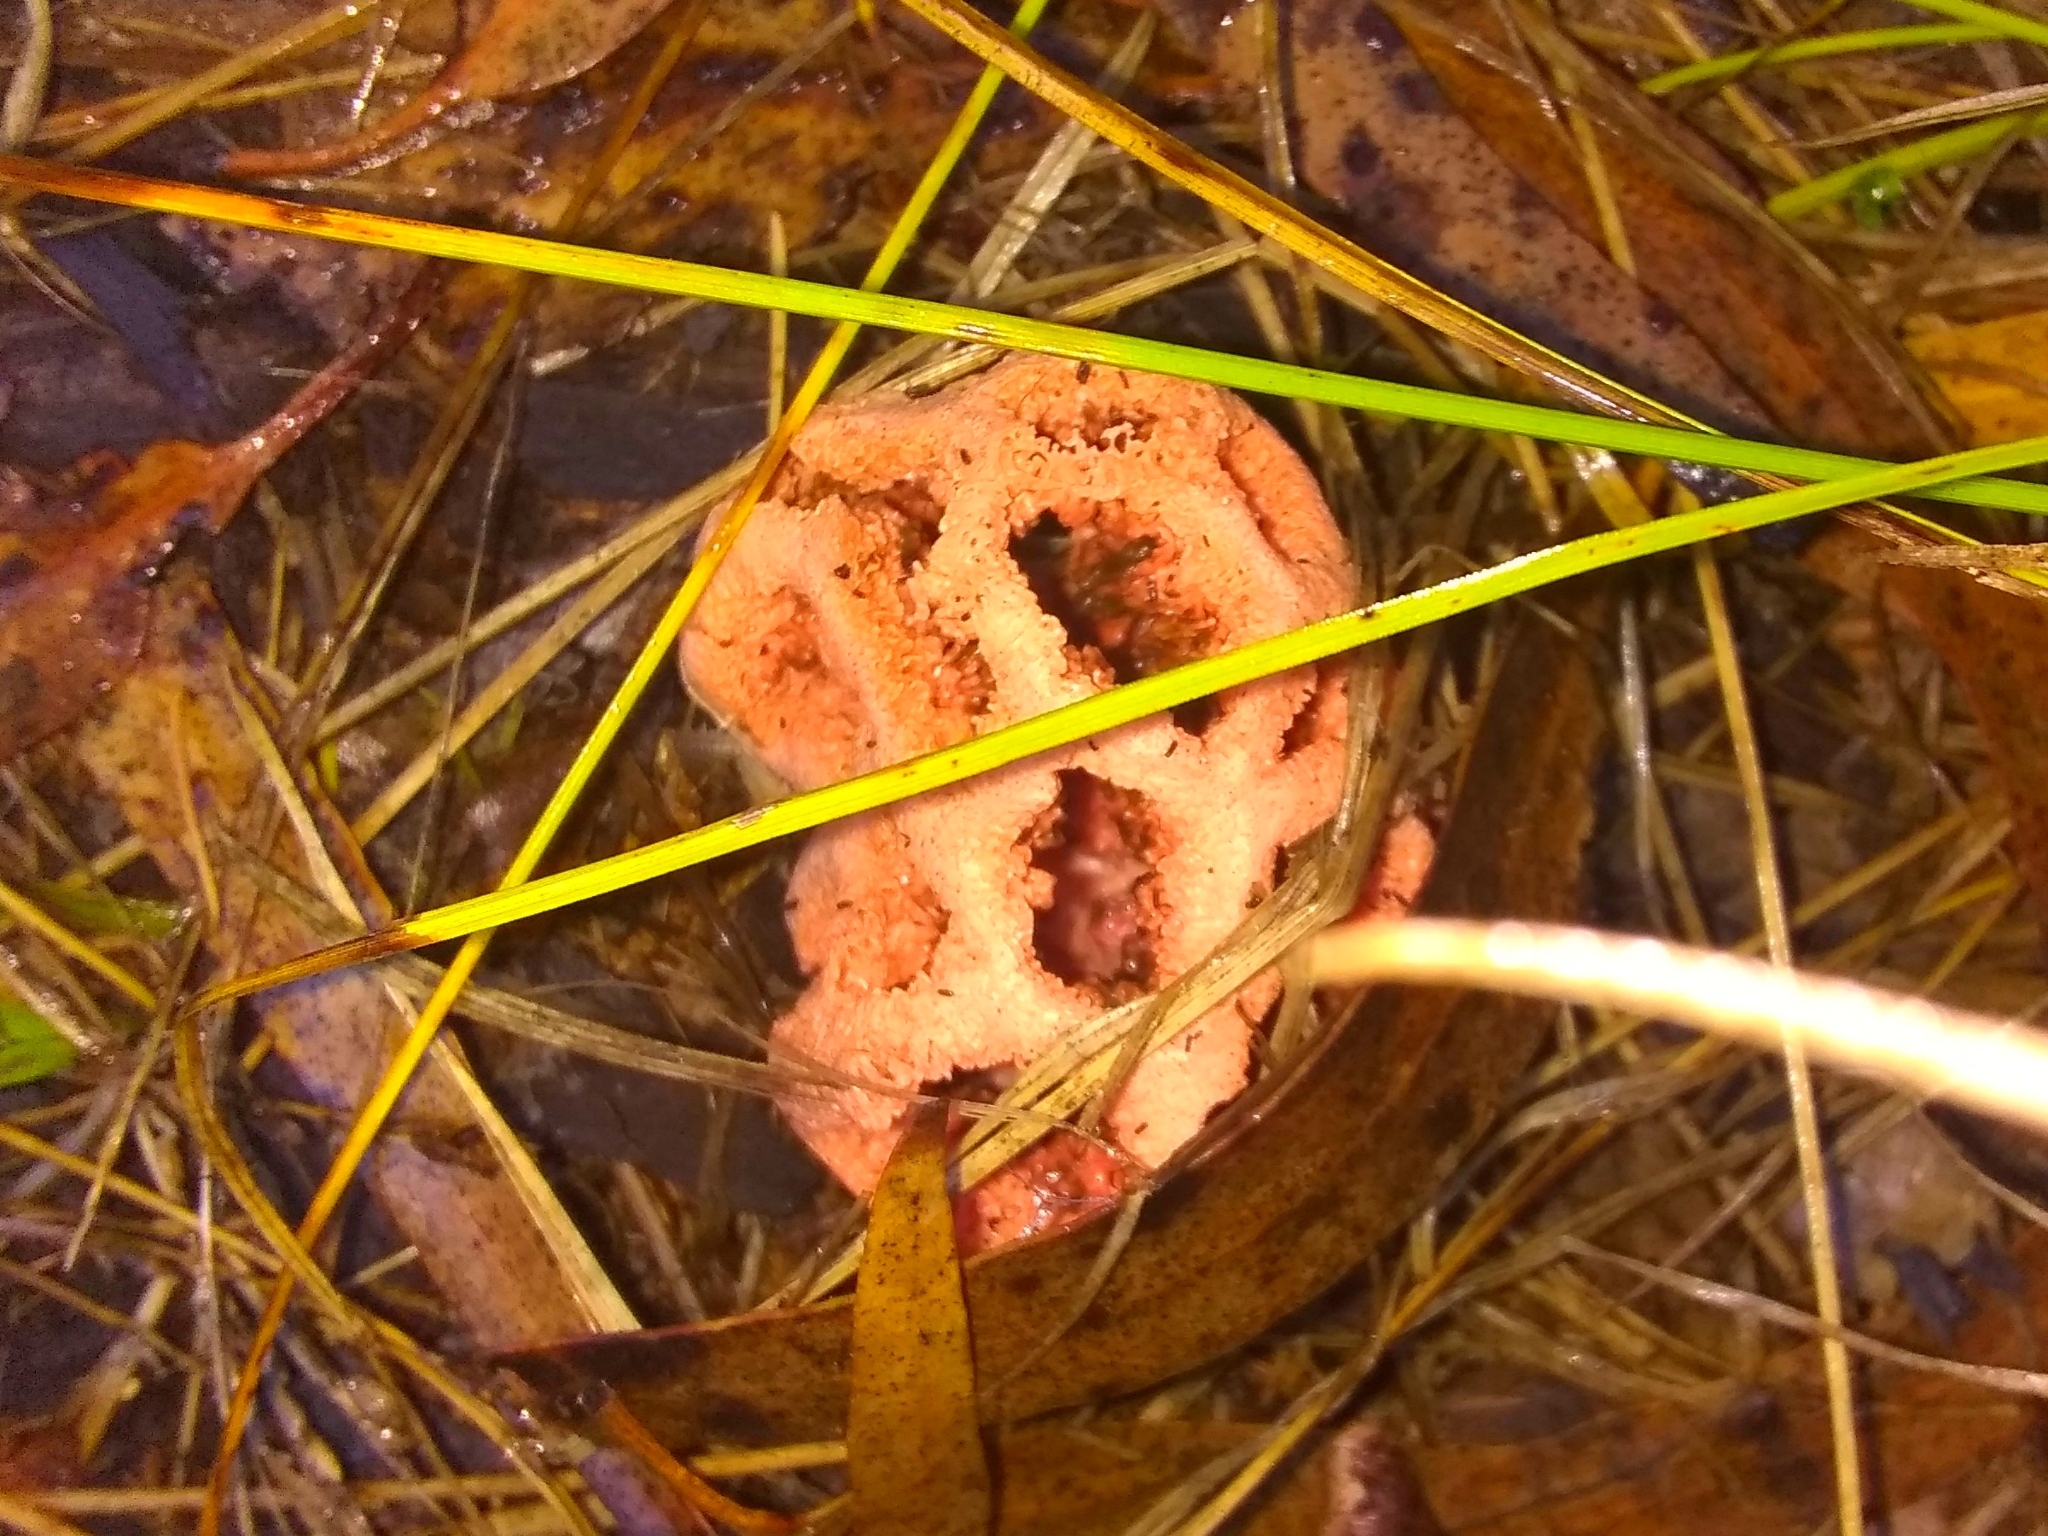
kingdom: Fungi
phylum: Basidiomycota
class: Agaricomycetes
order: Phallales
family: Phallaceae
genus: Clathrus
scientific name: Clathrus ruber
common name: Red cage
